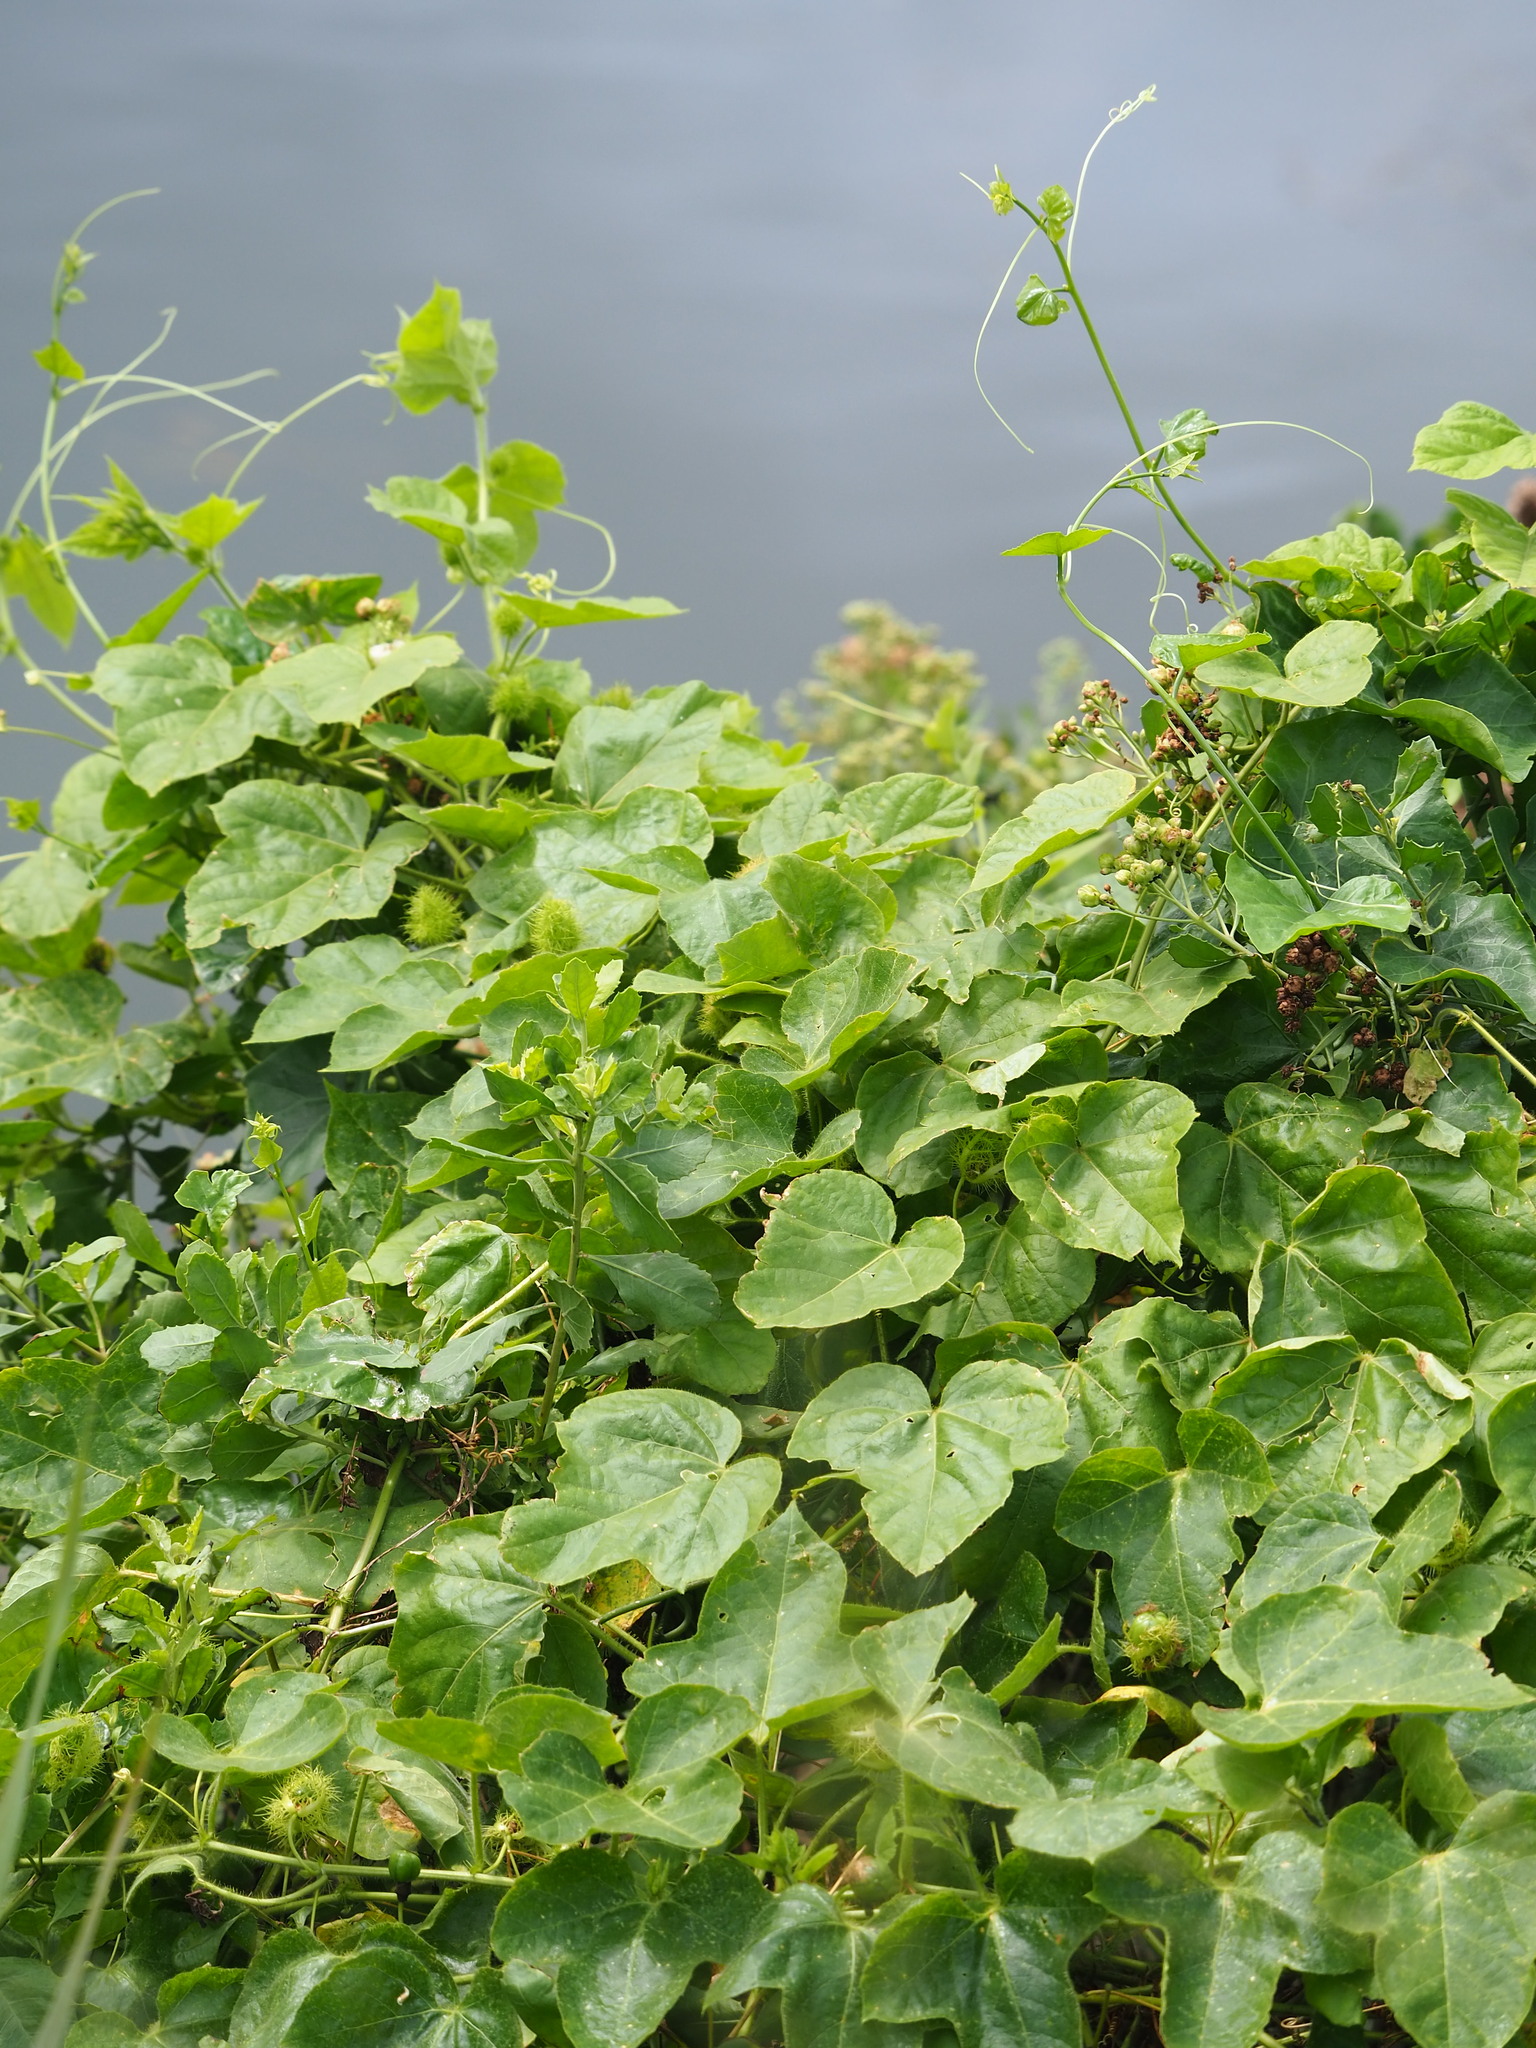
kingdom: Plantae
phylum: Tracheophyta
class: Magnoliopsida
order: Malpighiales
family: Passifloraceae
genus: Passiflora
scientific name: Passiflora vesicaria
